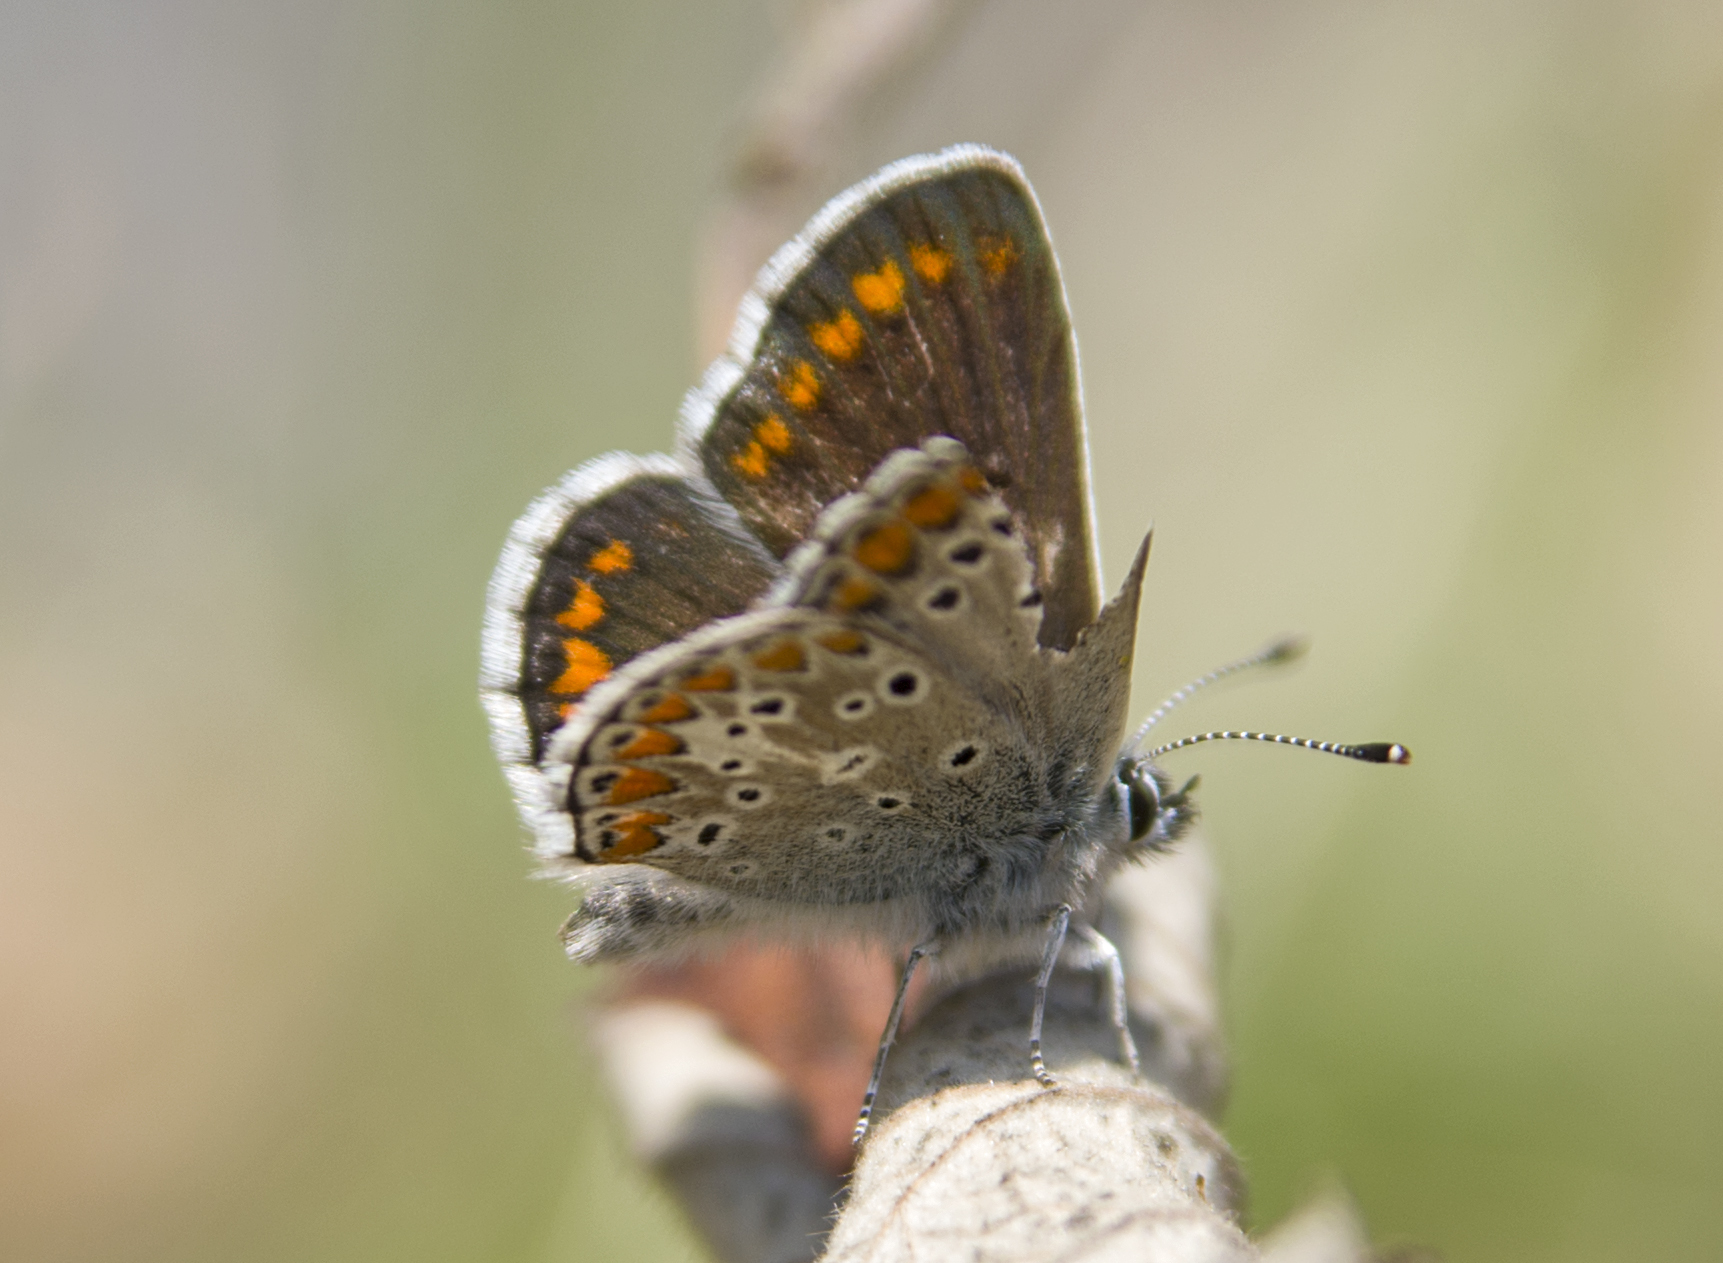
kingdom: Animalia
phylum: Arthropoda
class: Insecta
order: Lepidoptera
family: Lycaenidae
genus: Aricia
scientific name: Aricia agestis
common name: Brown argus
